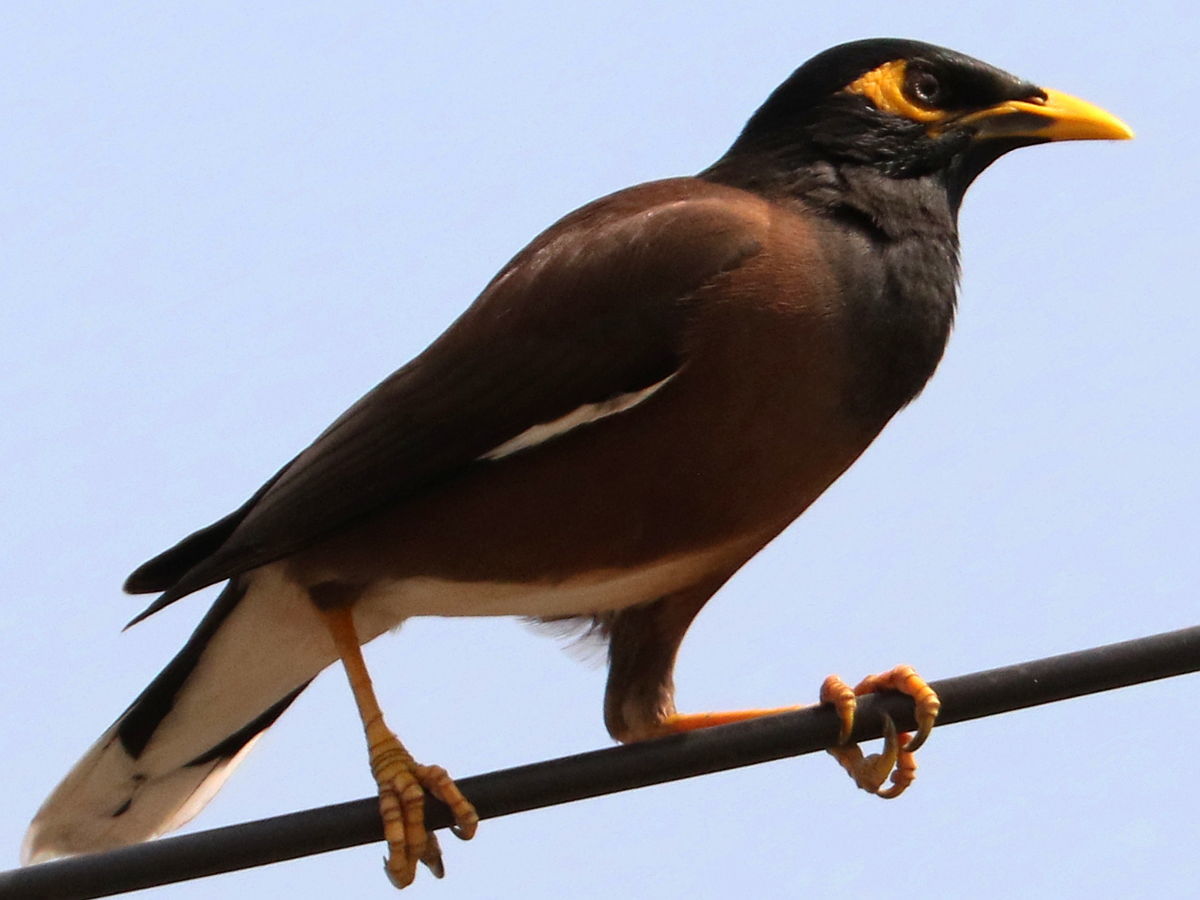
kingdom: Animalia
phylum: Chordata
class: Aves
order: Passeriformes
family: Sturnidae
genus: Acridotheres
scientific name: Acridotheres tristis
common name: Common myna
